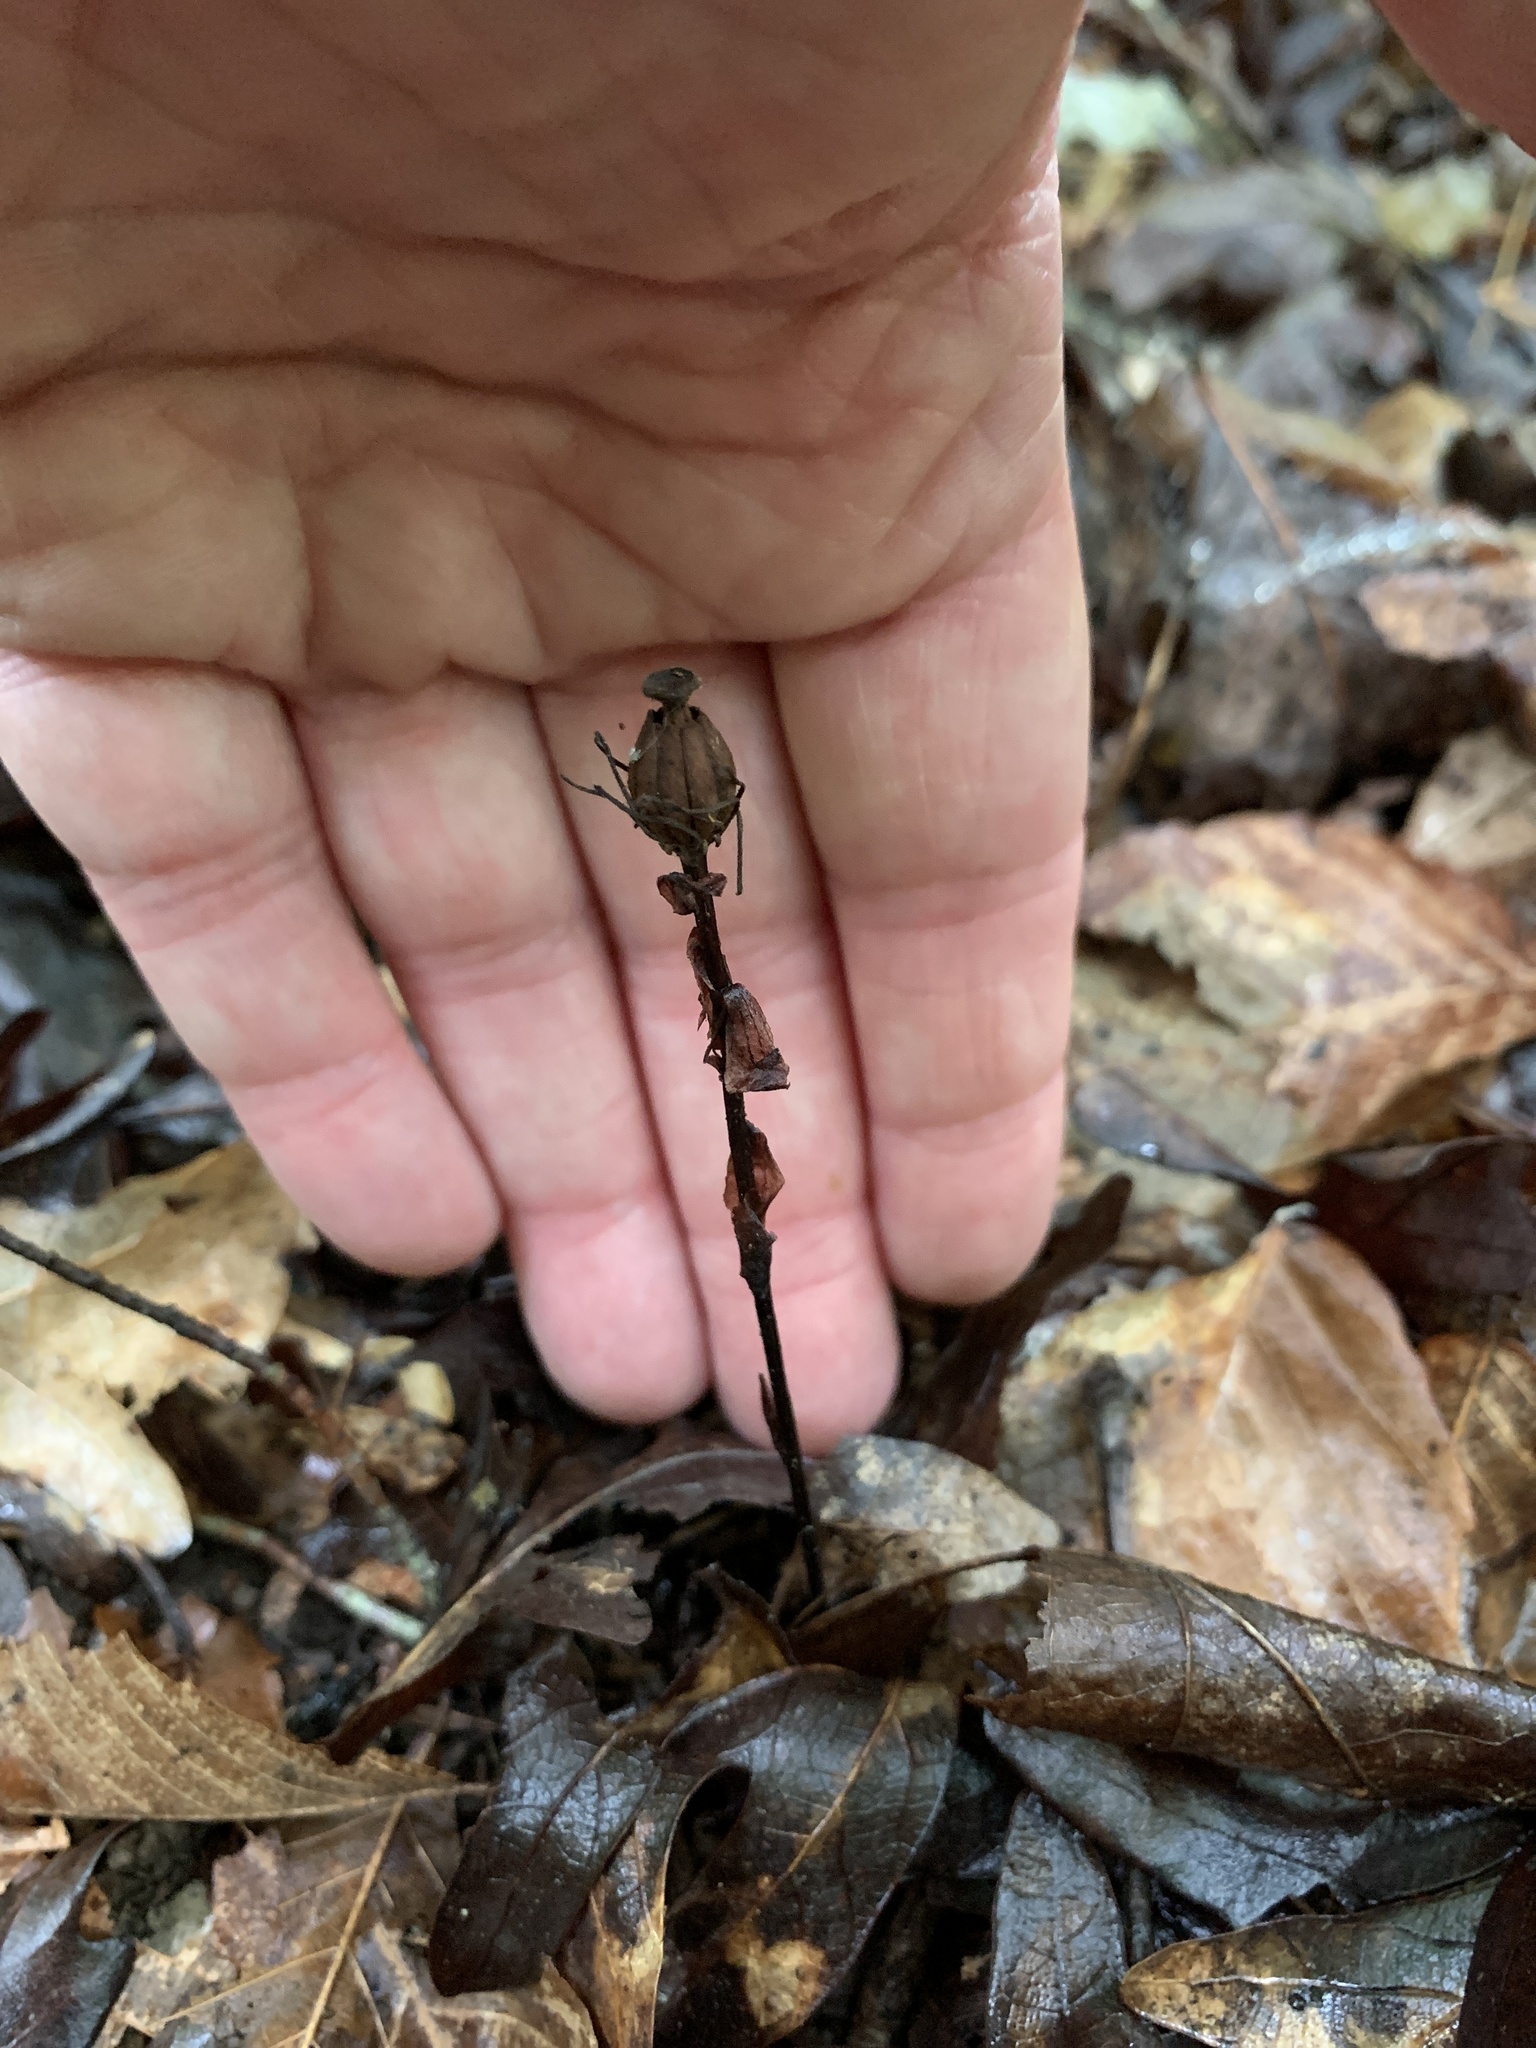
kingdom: Plantae
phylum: Tracheophyta
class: Magnoliopsida
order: Ericales
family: Ericaceae
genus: Monotropa
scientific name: Monotropa uniflora
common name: Convulsion root
